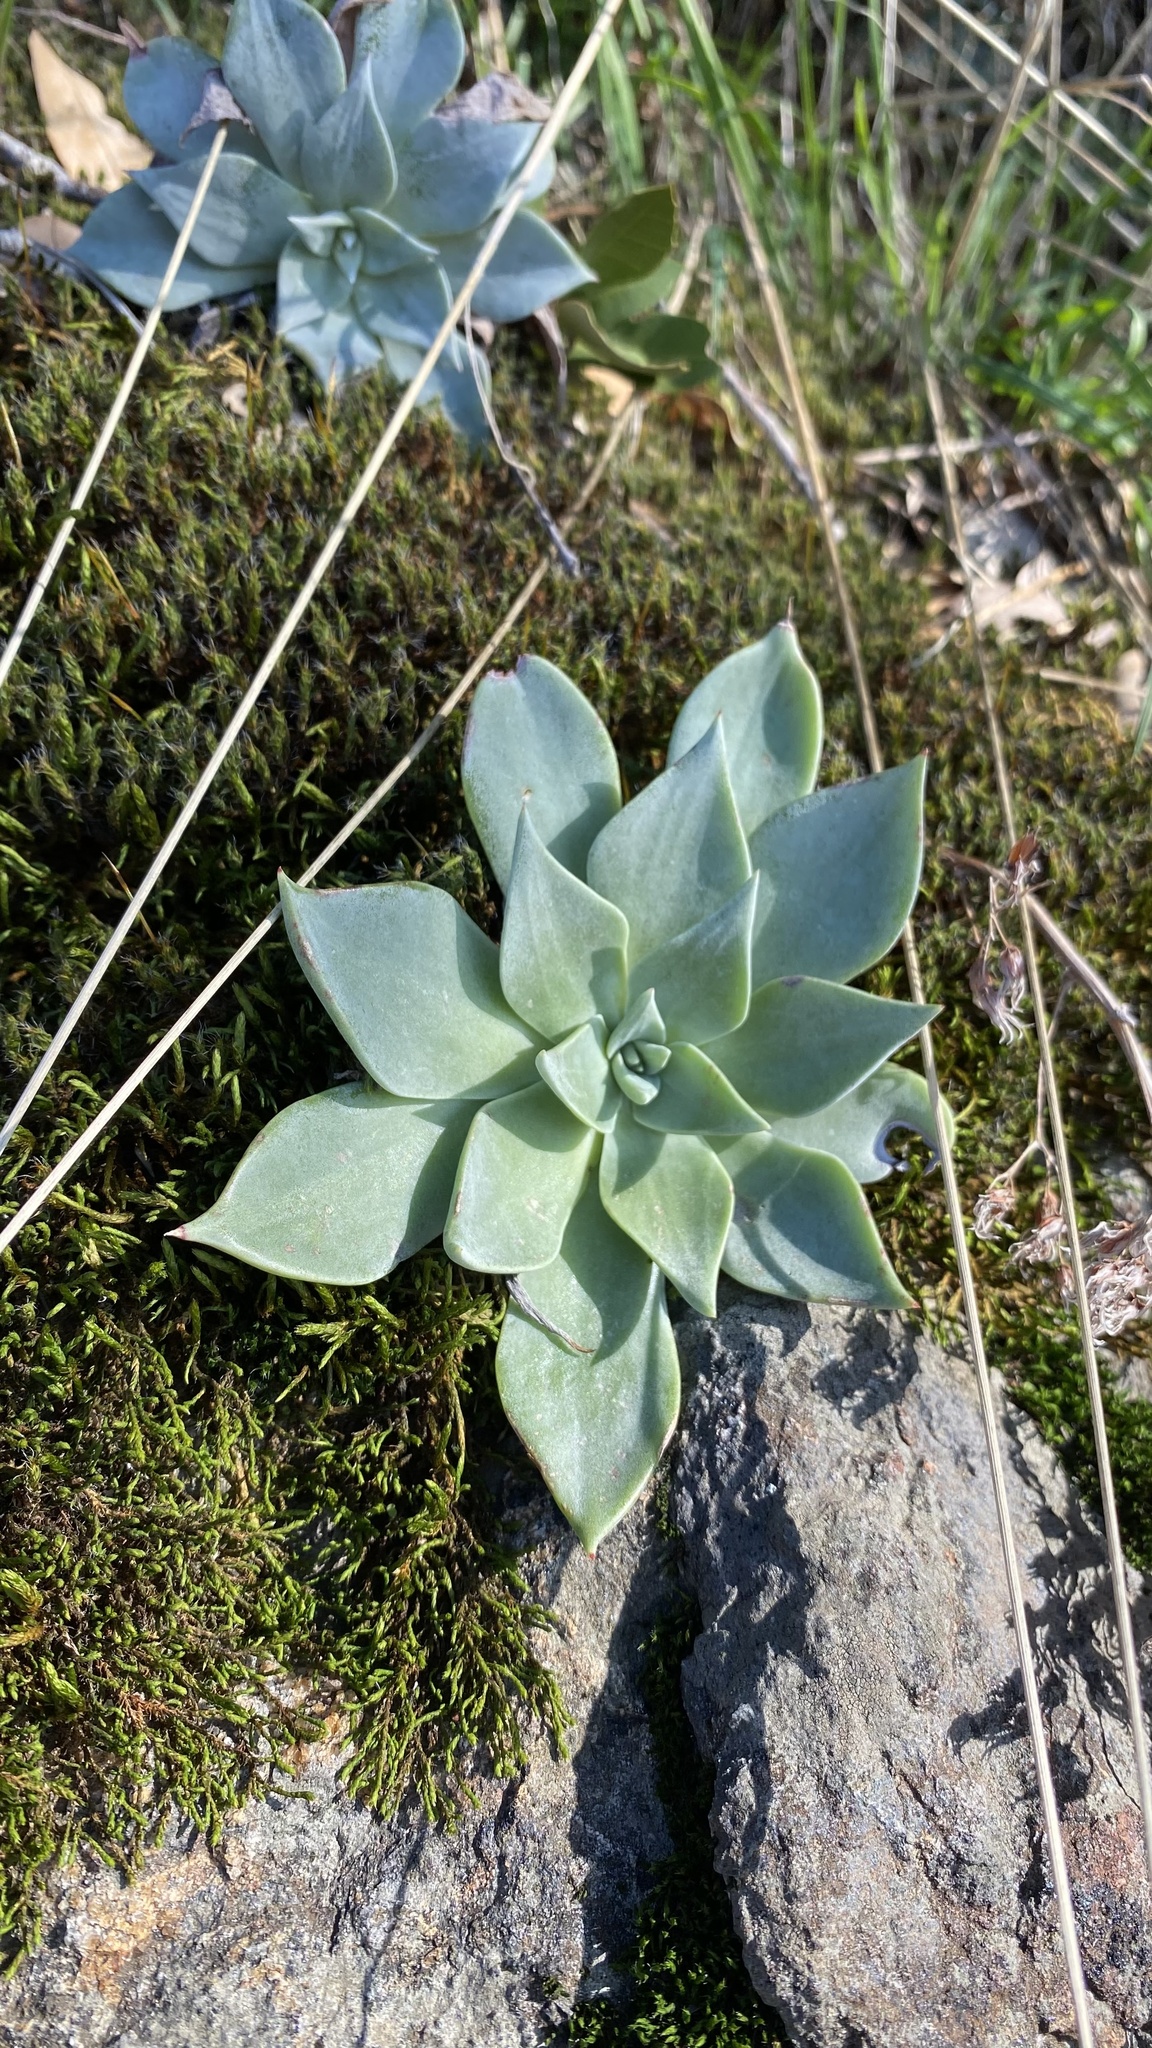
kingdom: Plantae
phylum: Tracheophyta
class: Magnoliopsida
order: Saxifragales
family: Crassulaceae
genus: Dudleya
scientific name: Dudleya cymosa
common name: Canyon dudleya
